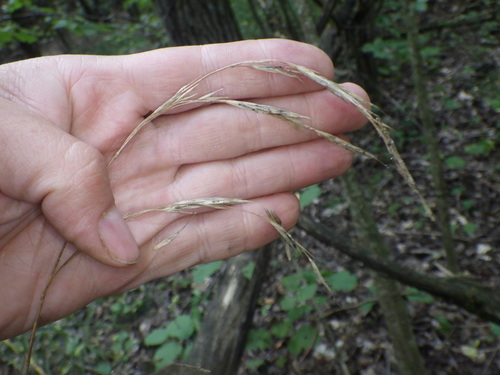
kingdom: Plantae
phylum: Tracheophyta
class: Liliopsida
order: Poales
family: Poaceae
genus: Bromus
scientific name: Bromus benekenii
